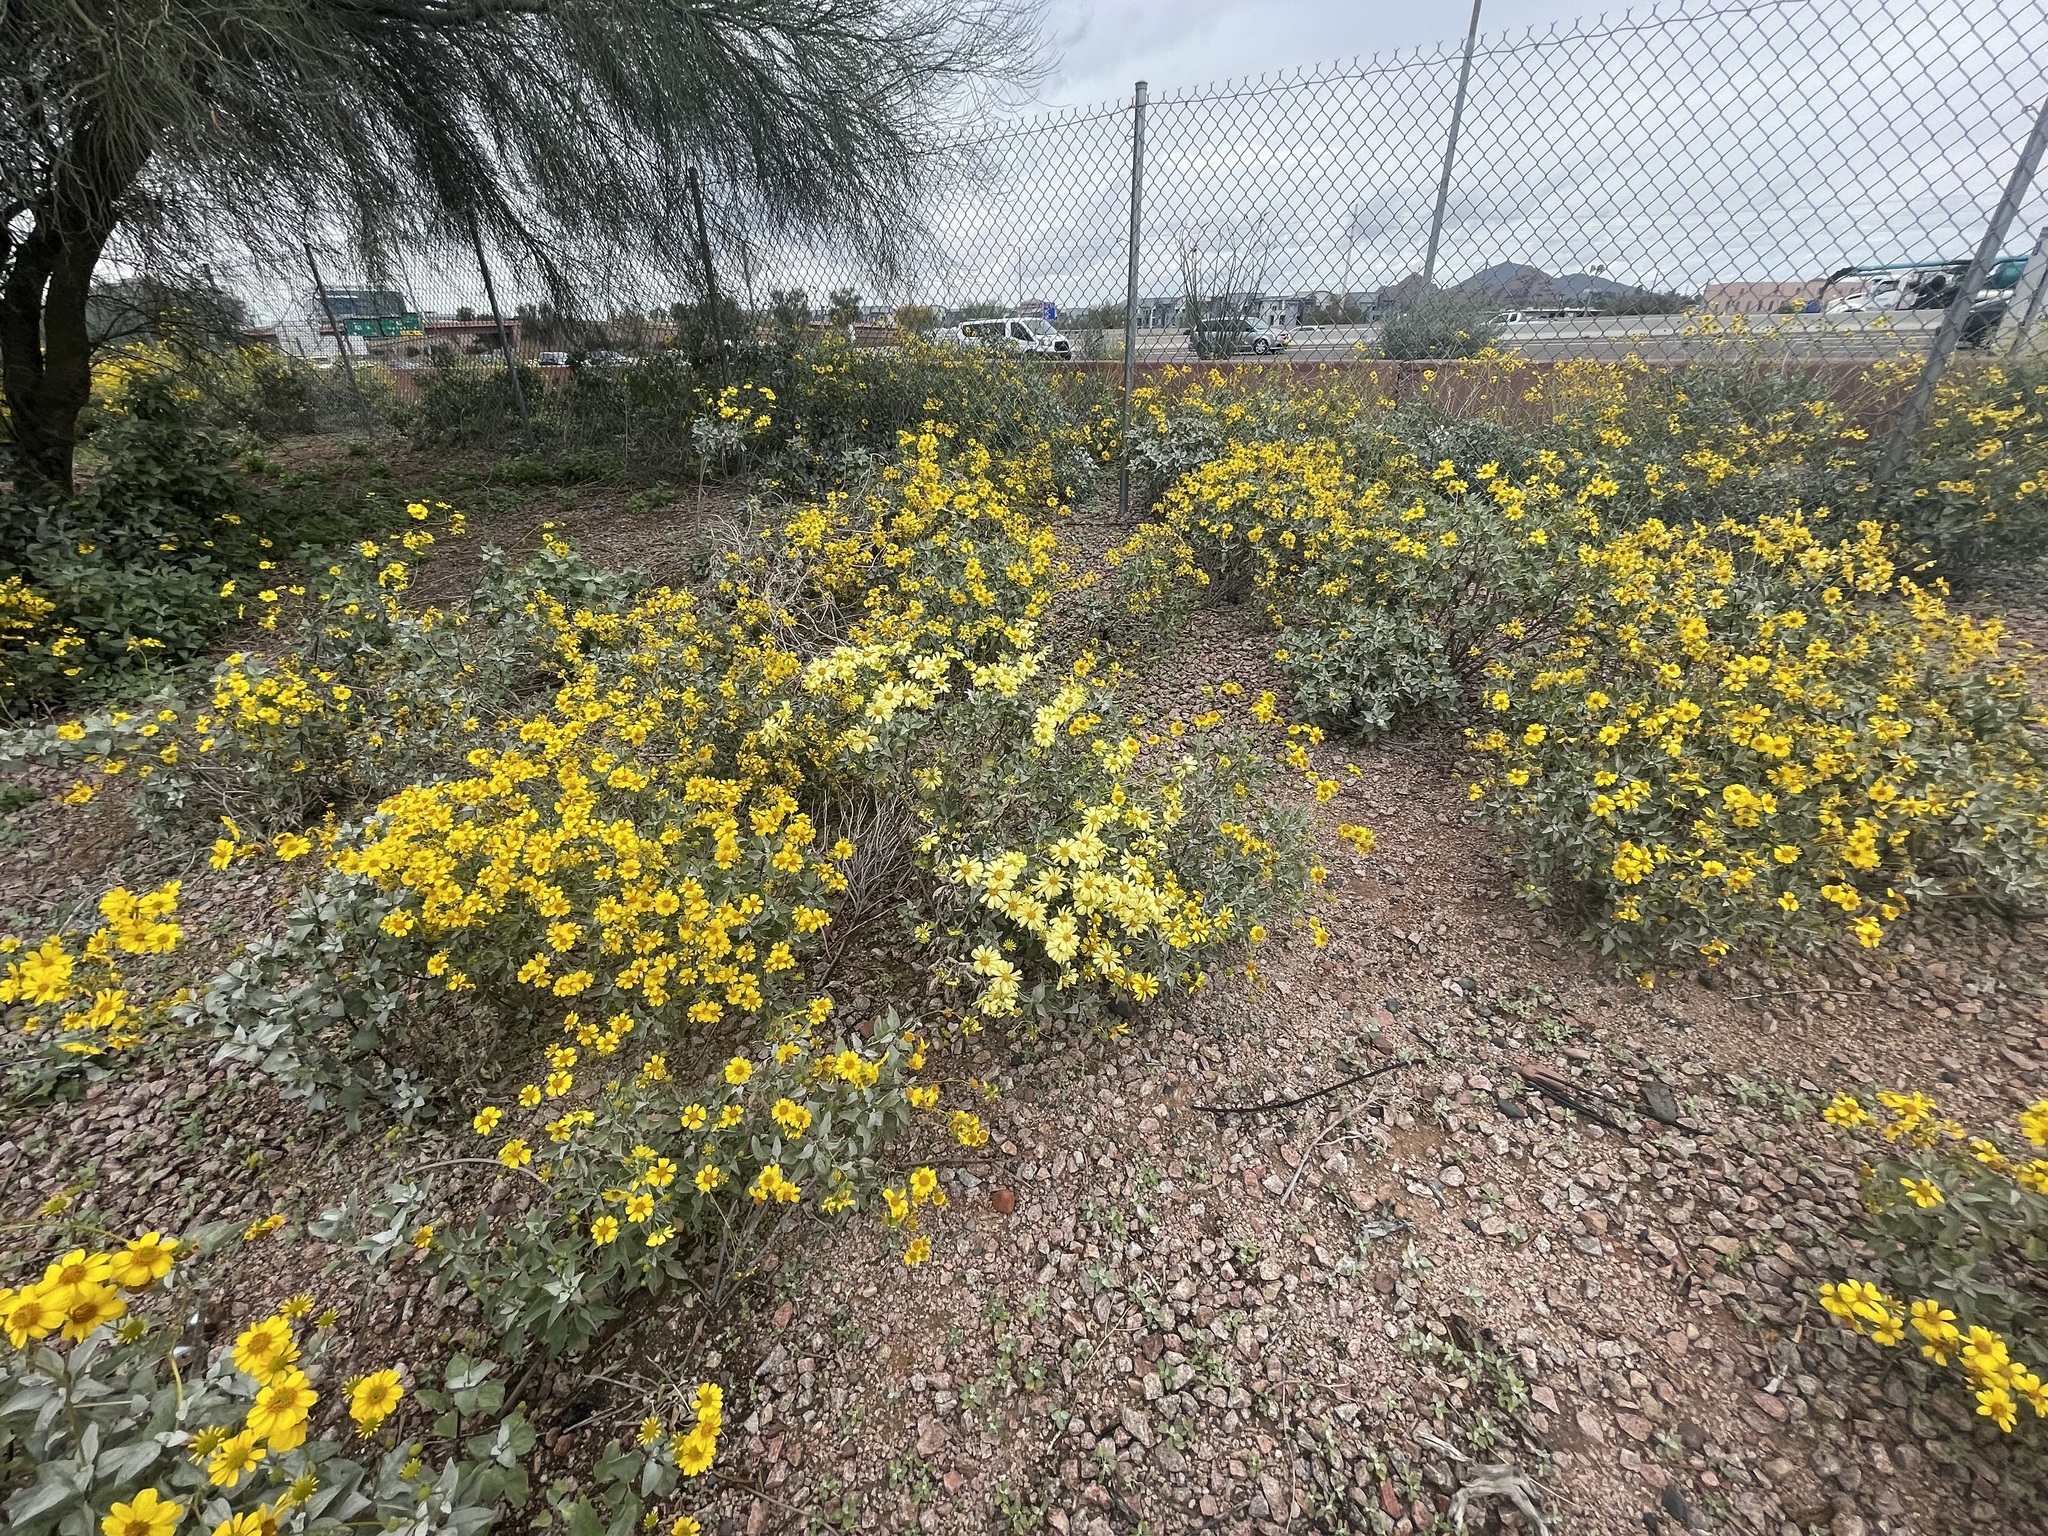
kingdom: Plantae
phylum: Tracheophyta
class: Magnoliopsida
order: Asterales
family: Asteraceae
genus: Encelia
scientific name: Encelia farinosa
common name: Brittlebush
